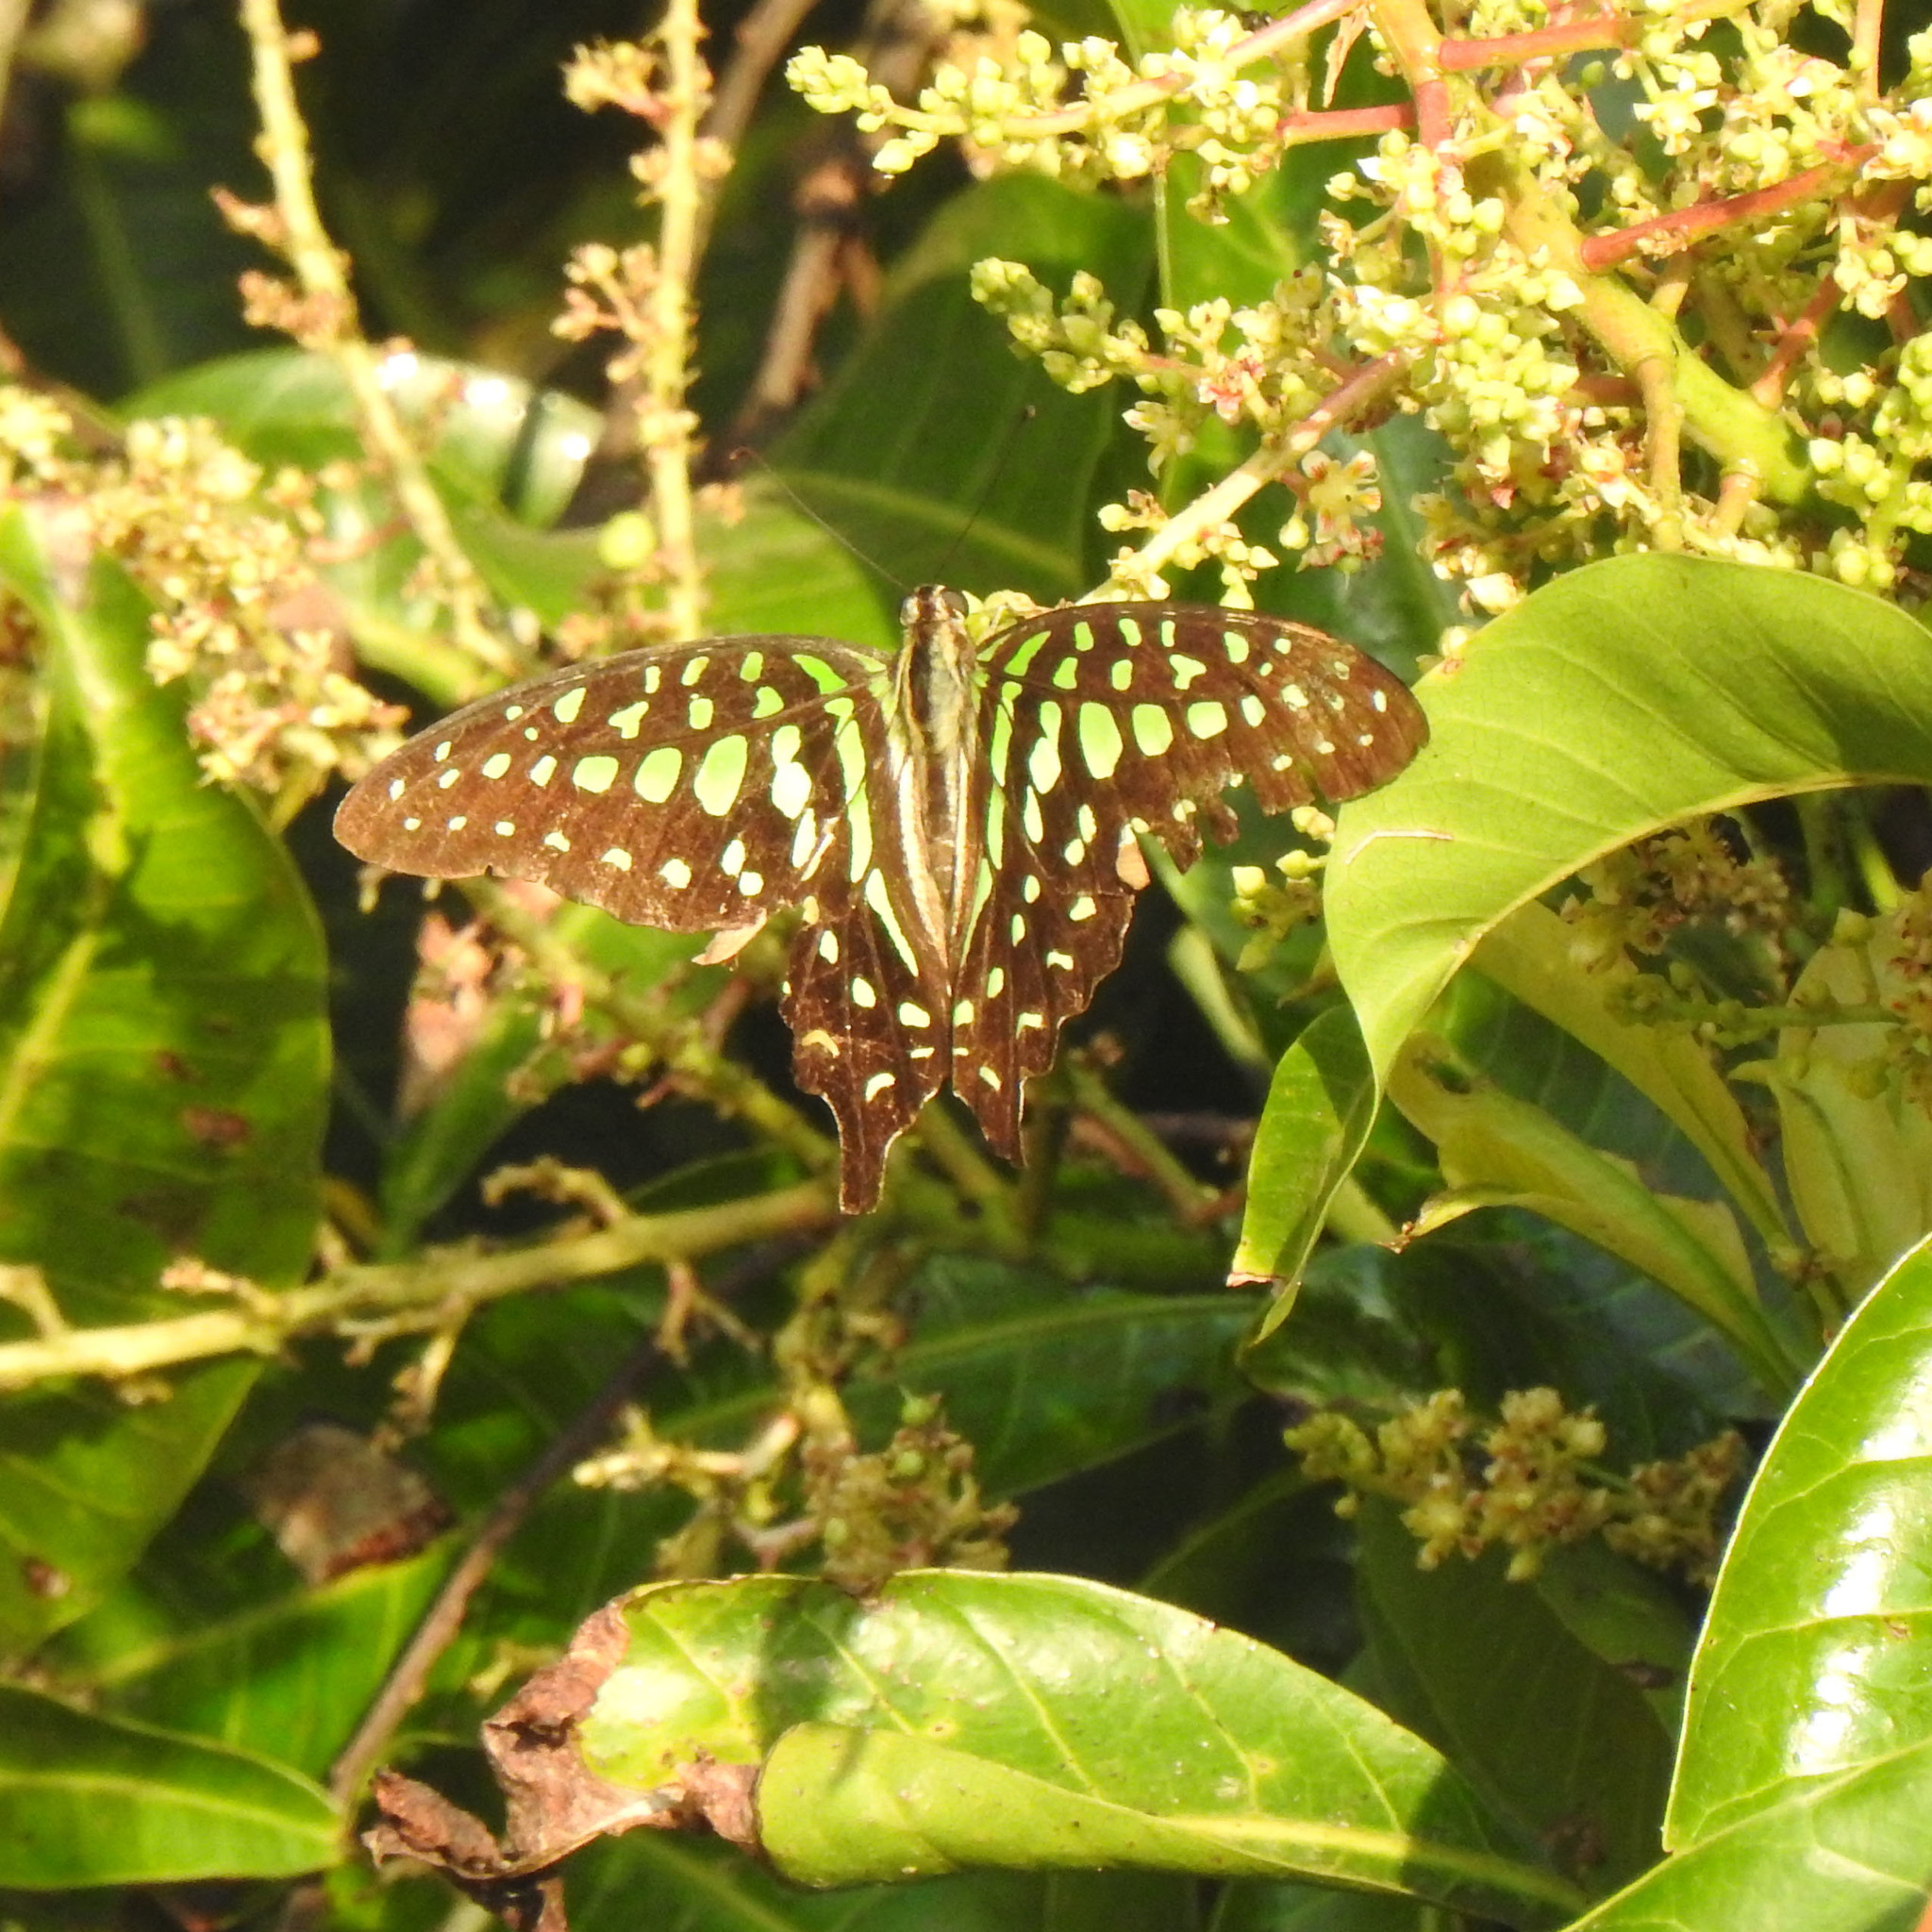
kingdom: Animalia
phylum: Arthropoda
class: Insecta
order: Lepidoptera
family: Papilionidae
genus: Graphium
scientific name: Graphium agamemnon
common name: Tailed jay
